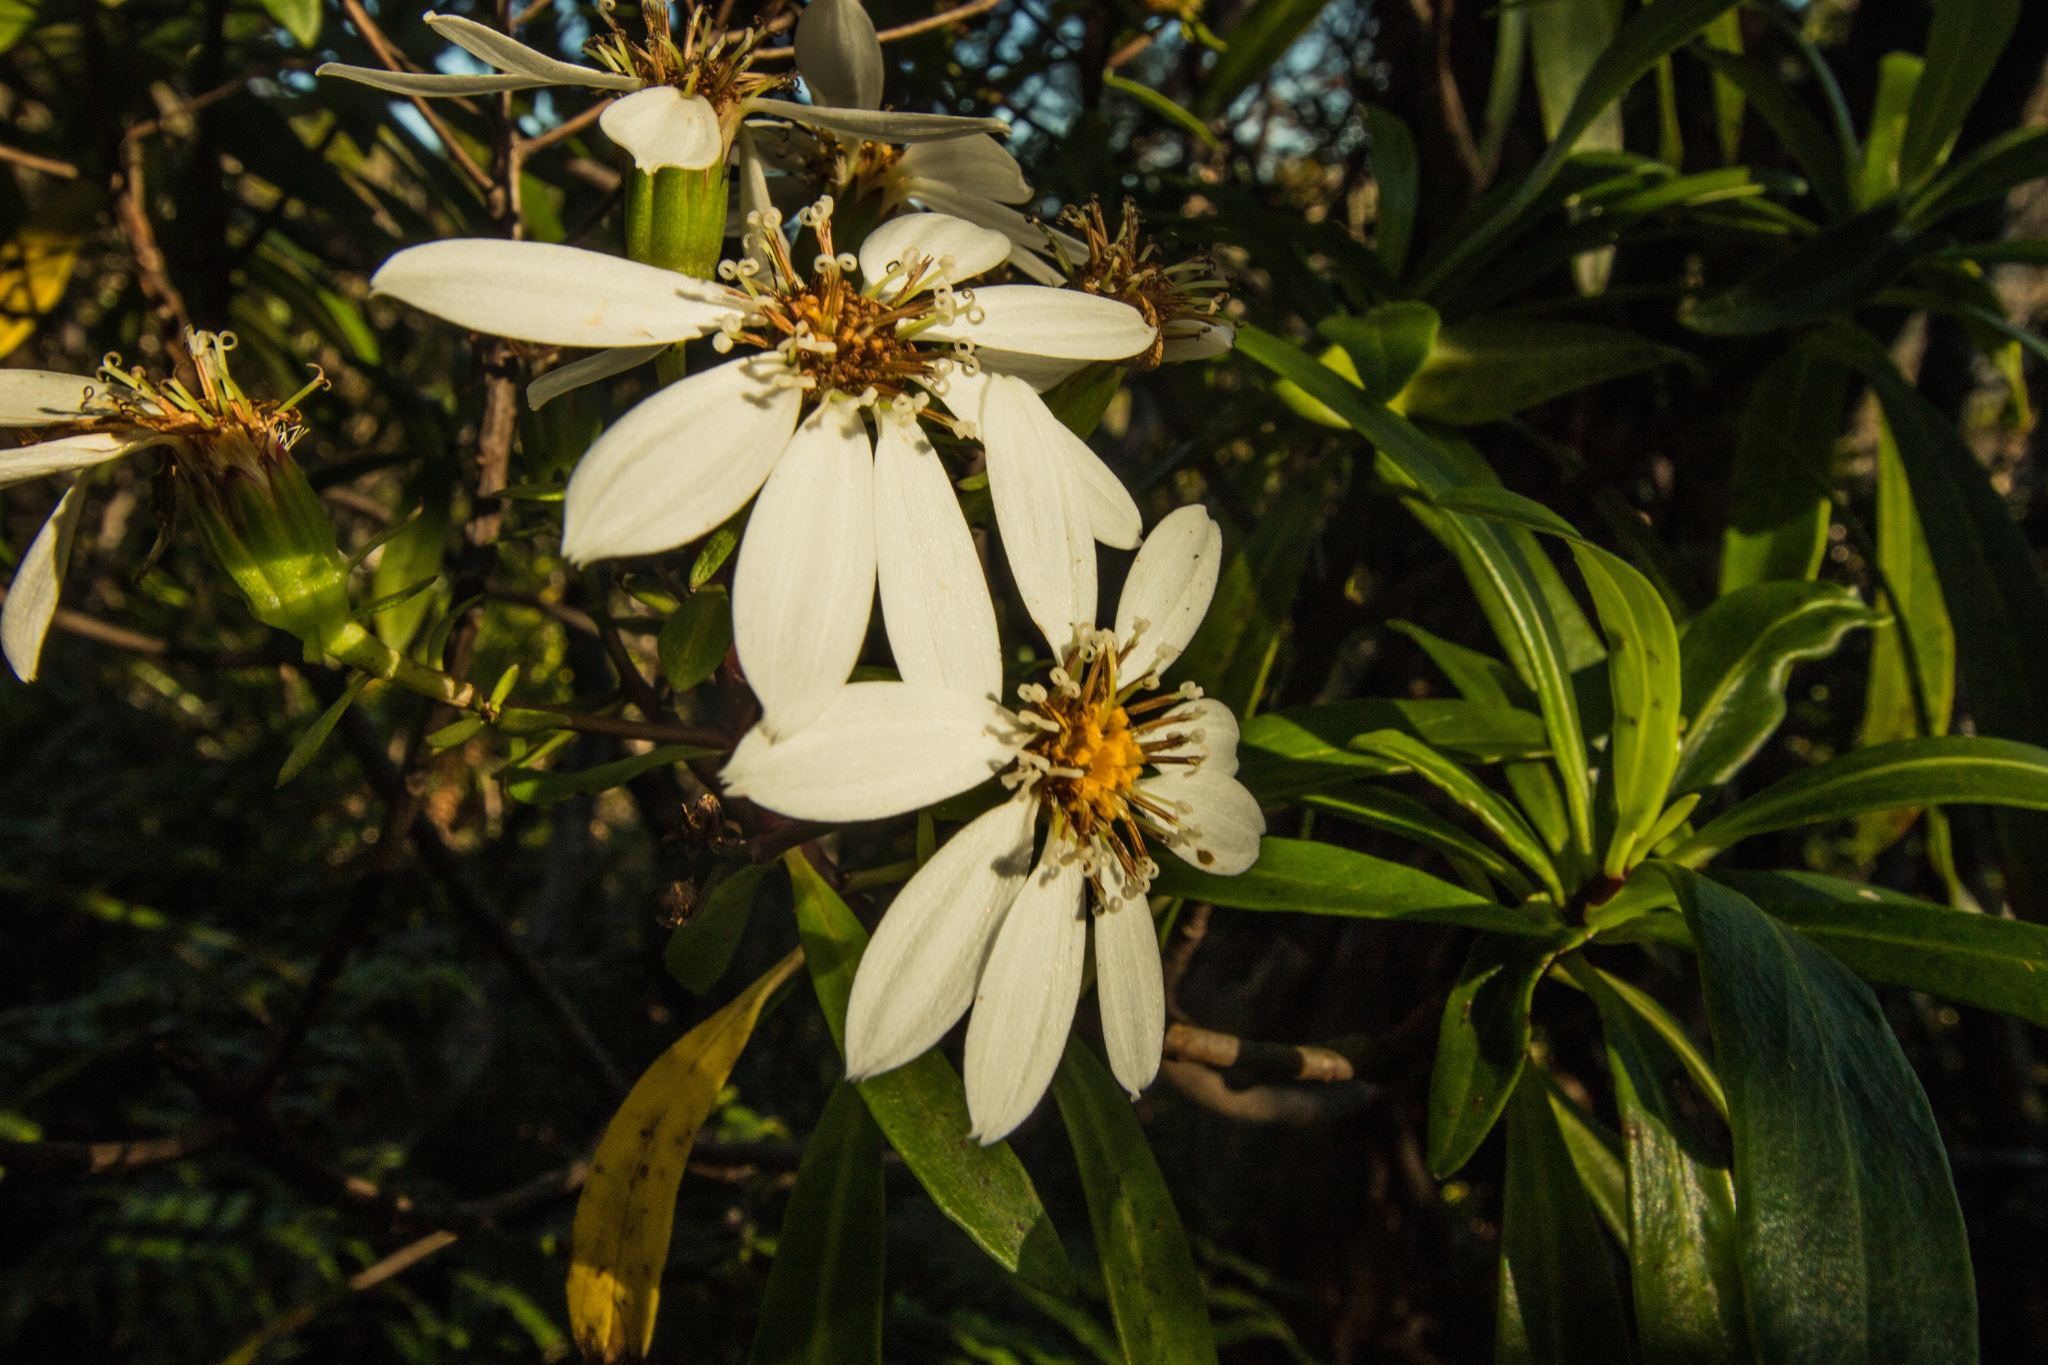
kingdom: Plantae
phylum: Tracheophyta
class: Magnoliopsida
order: Asterales
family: Asteraceae
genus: Brachyglottis
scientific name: Brachyglottis kirkii
